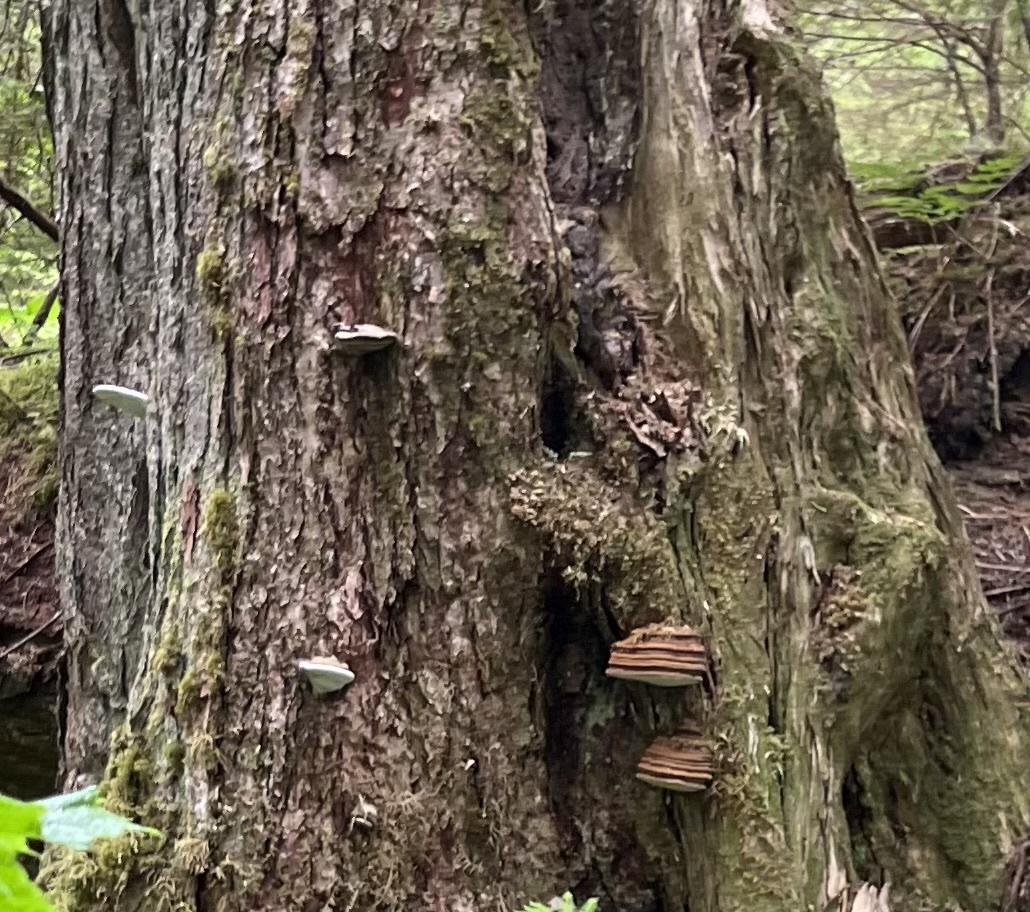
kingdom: Fungi
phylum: Basidiomycota
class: Agaricomycetes
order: Polyporales
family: Polyporaceae
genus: Ganoderma
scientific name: Ganoderma applanatum
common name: Artist's bracket
